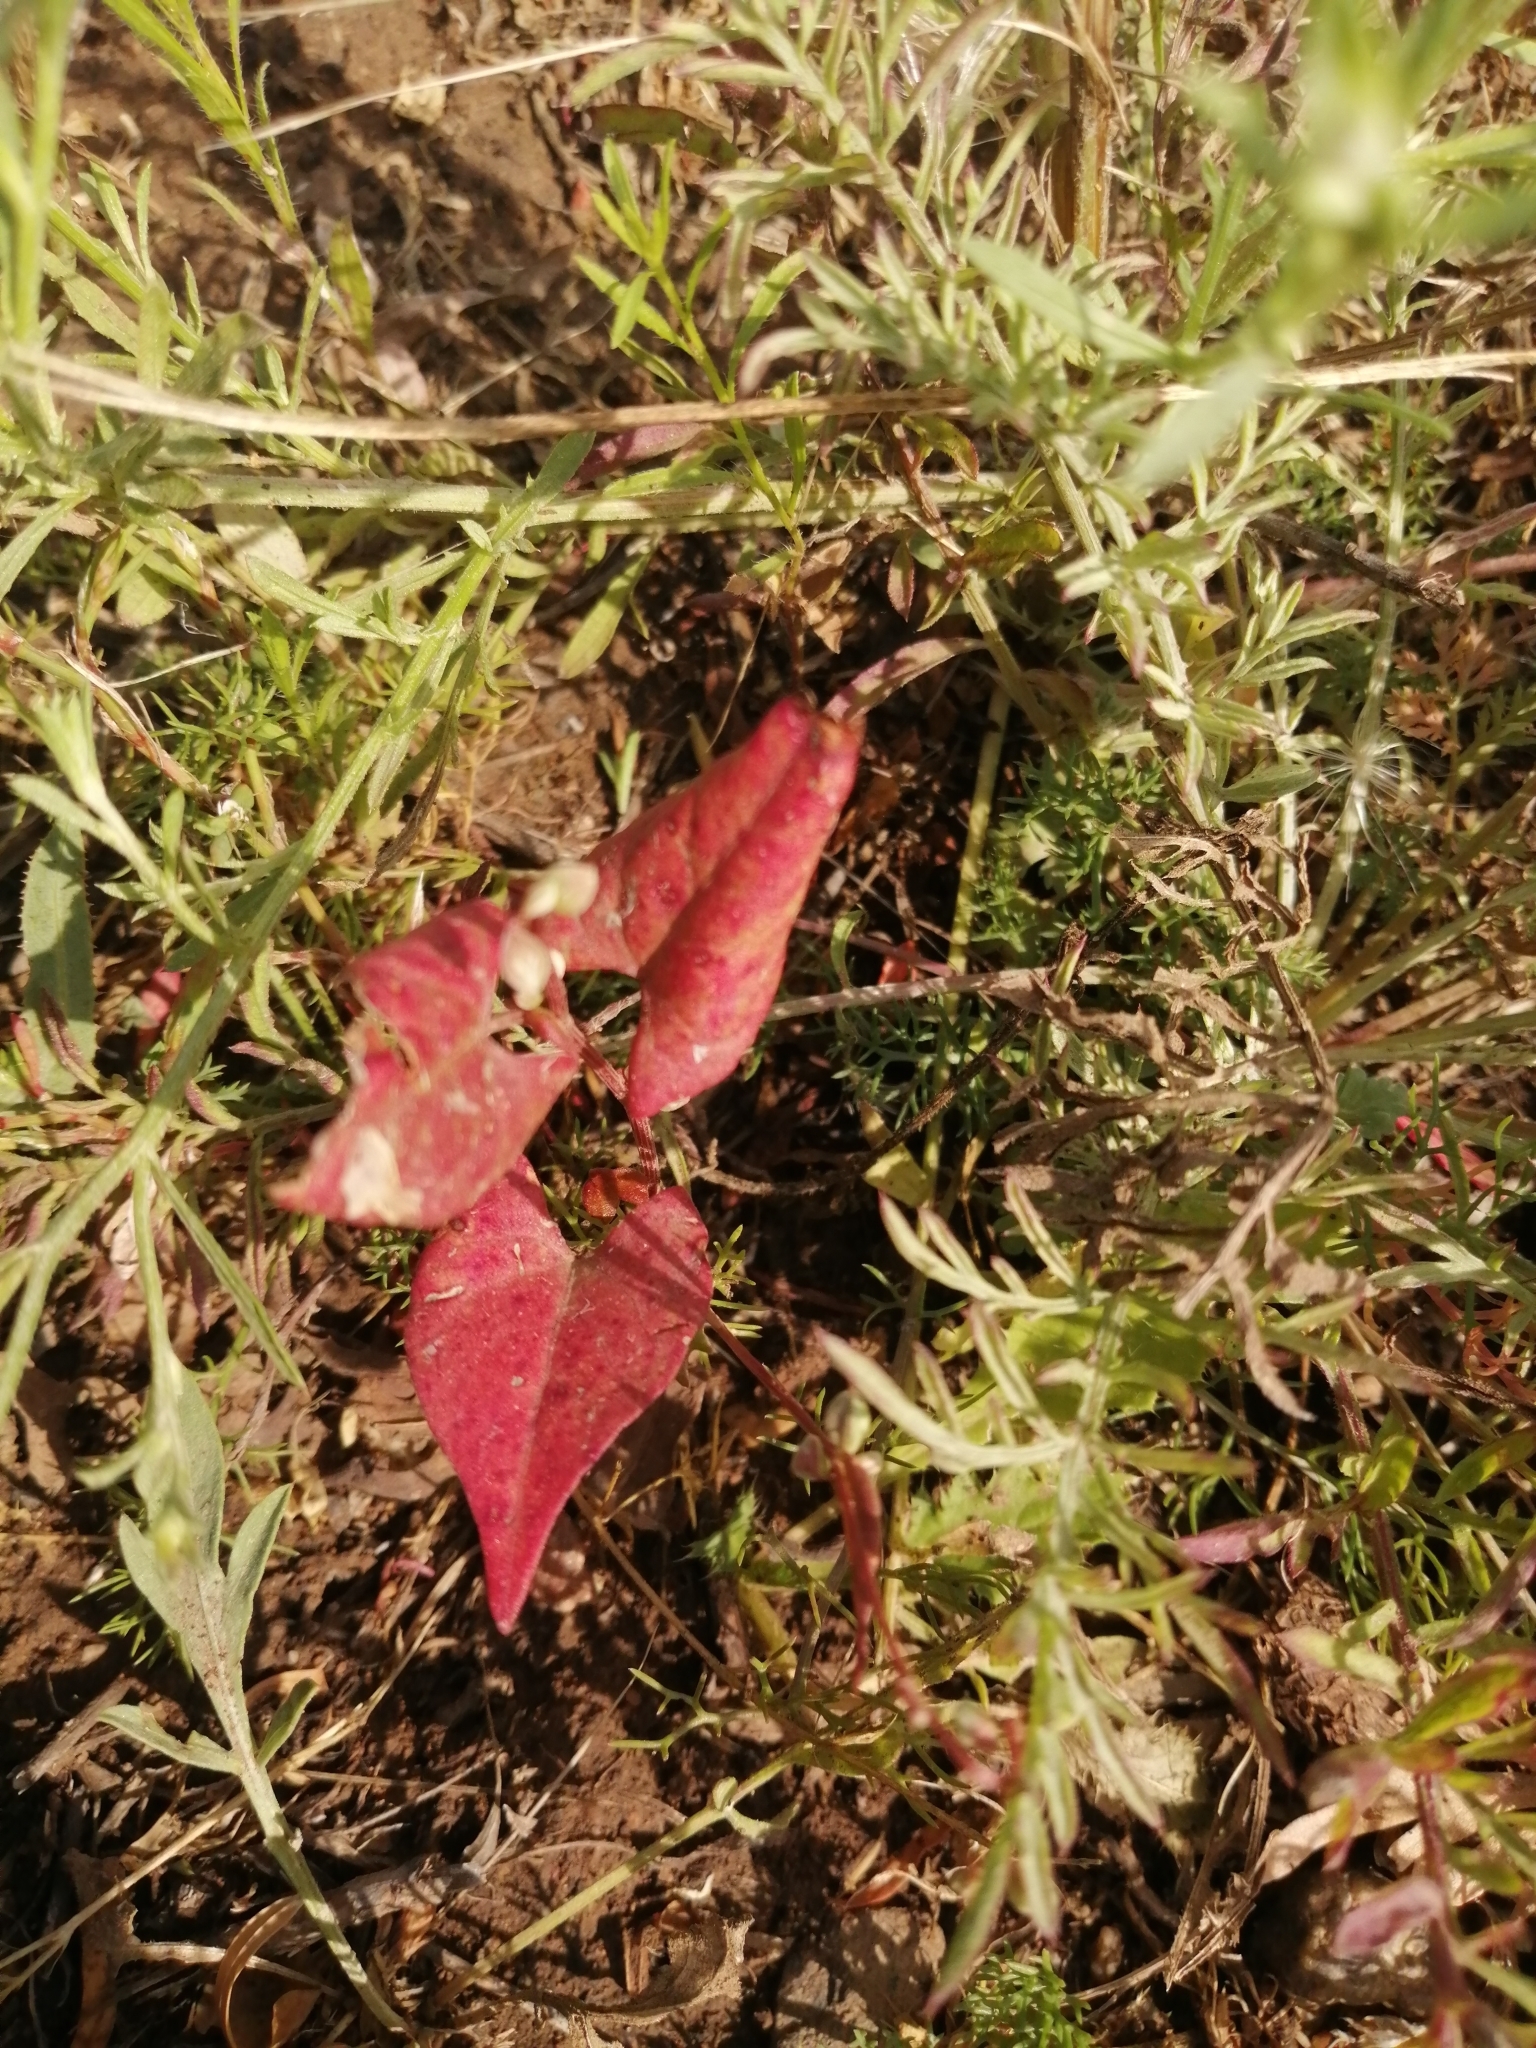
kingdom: Plantae
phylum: Tracheophyta
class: Magnoliopsida
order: Caryophyllales
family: Polygonaceae
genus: Fallopia
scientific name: Fallopia convolvulus
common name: Black bindweed
